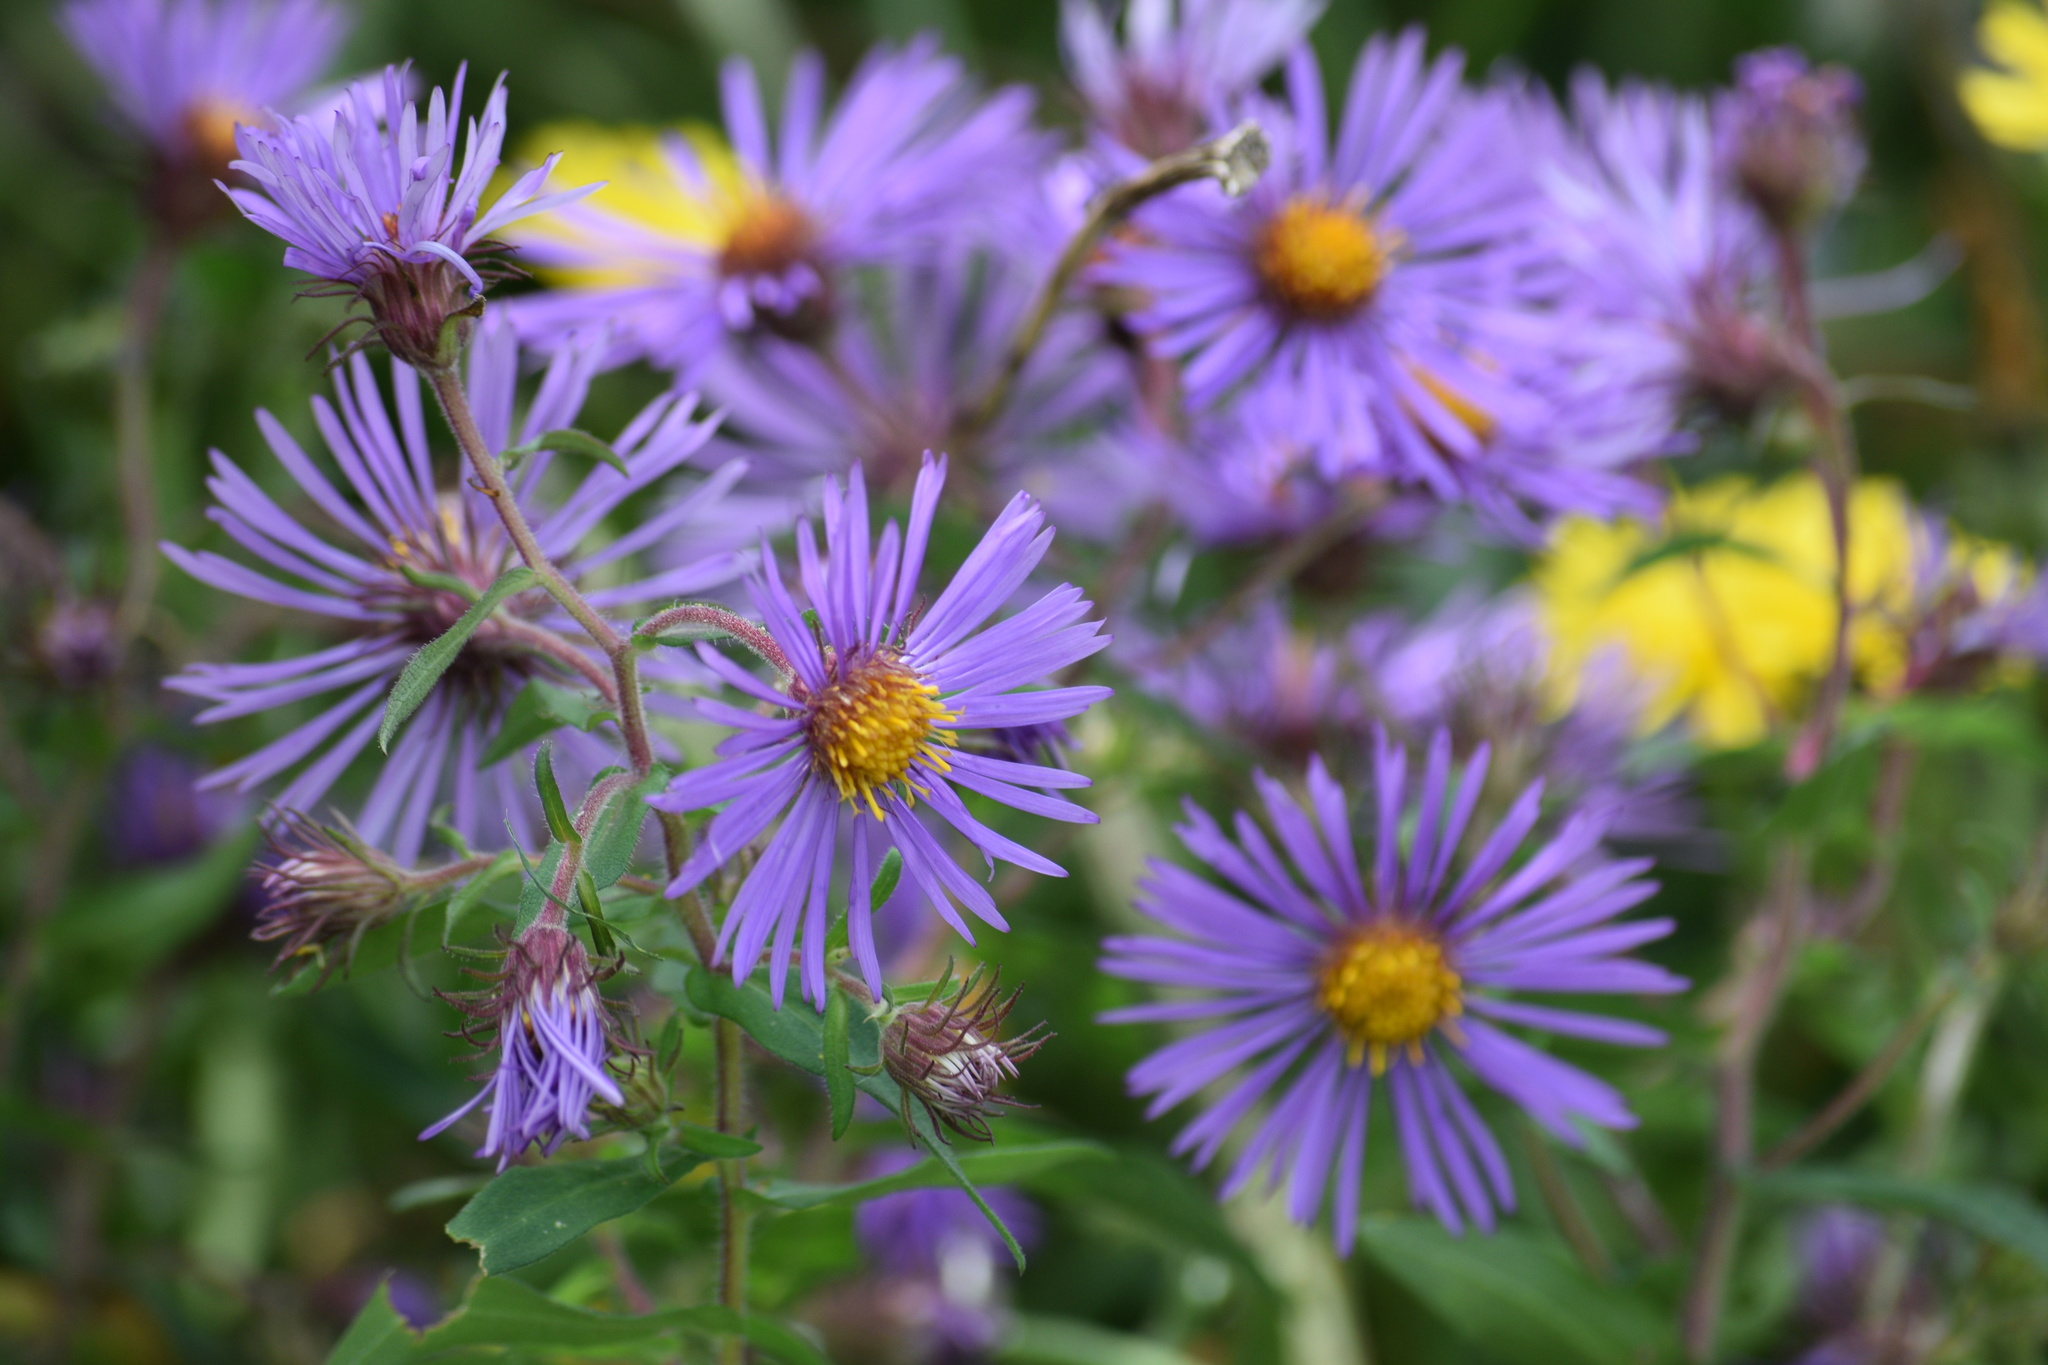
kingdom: Plantae
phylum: Tracheophyta
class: Magnoliopsida
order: Asterales
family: Asteraceae
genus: Symphyotrichum
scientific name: Symphyotrichum novae-angliae
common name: Michaelmas daisy
